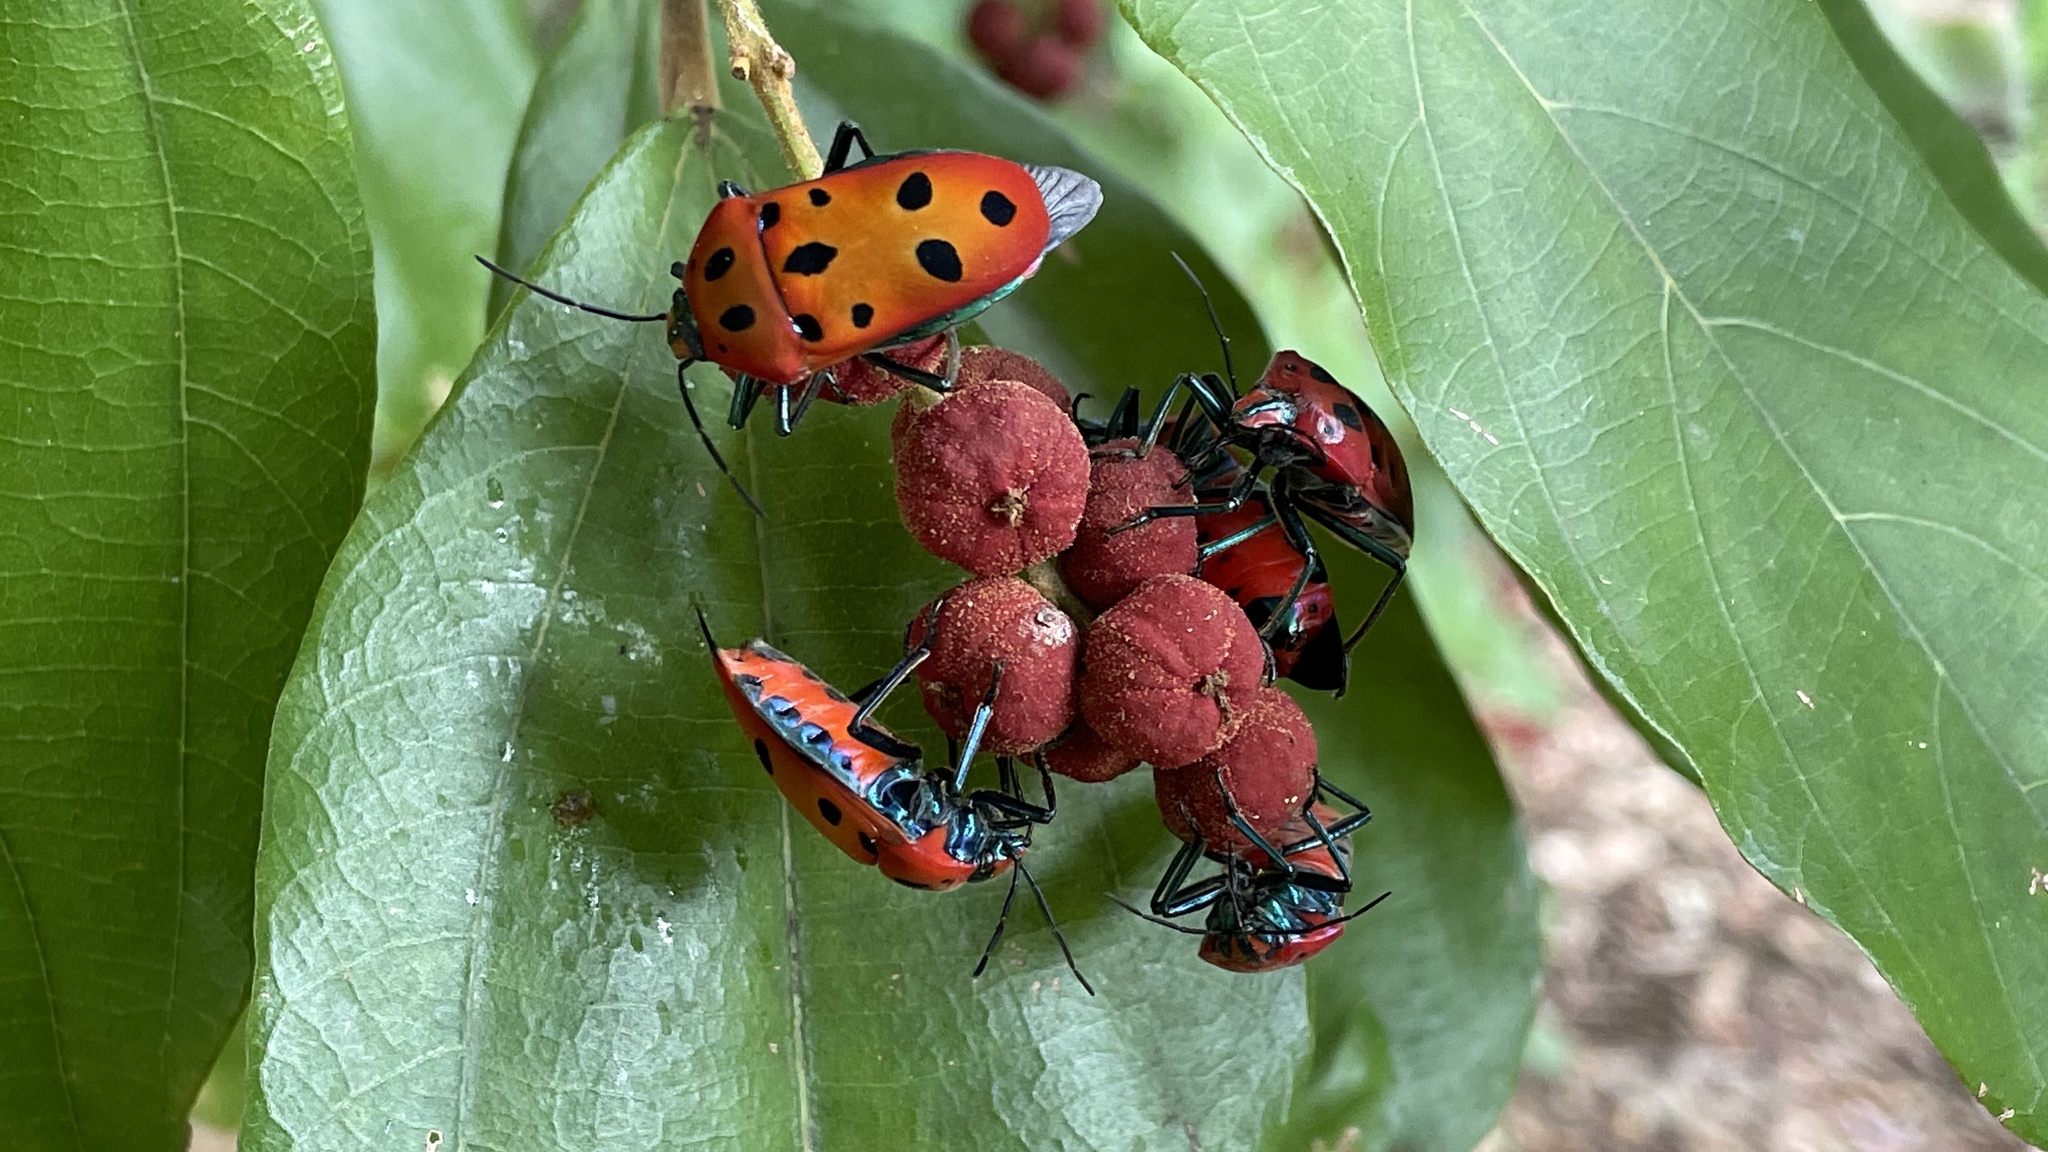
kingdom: Animalia
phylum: Arthropoda
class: Insecta
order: Hemiptera
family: Scutelleridae
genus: Cantao
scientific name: Cantao
